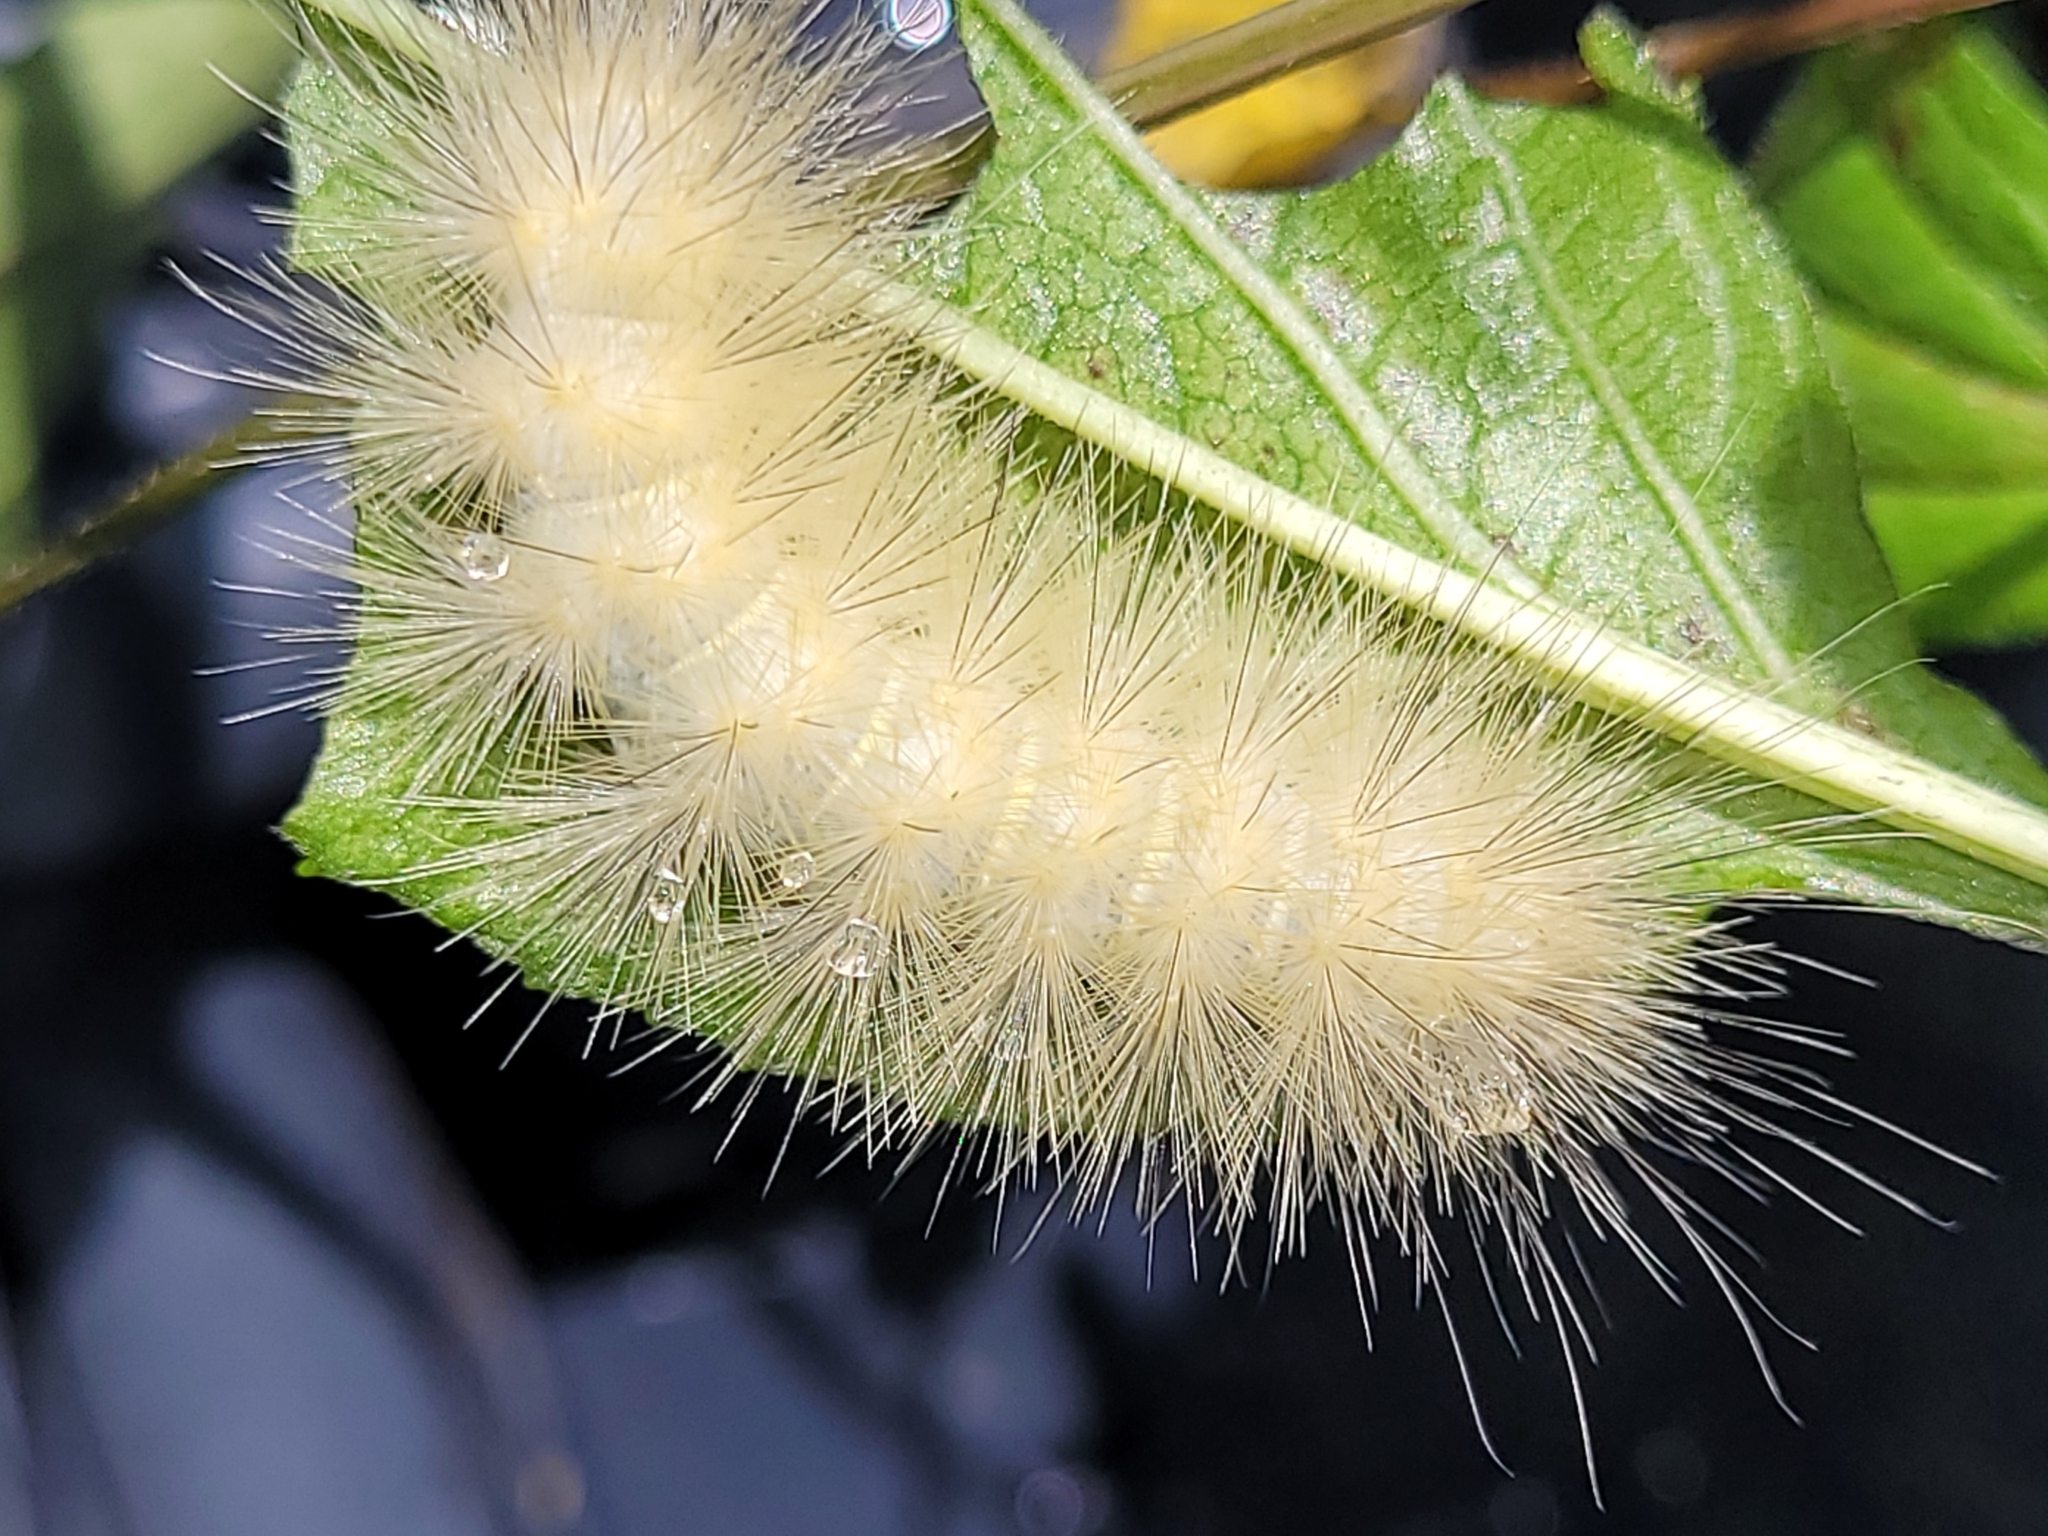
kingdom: Animalia
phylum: Arthropoda
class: Insecta
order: Lepidoptera
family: Erebidae
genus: Spilosoma
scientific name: Spilosoma virginica
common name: Virginia tiger moth
